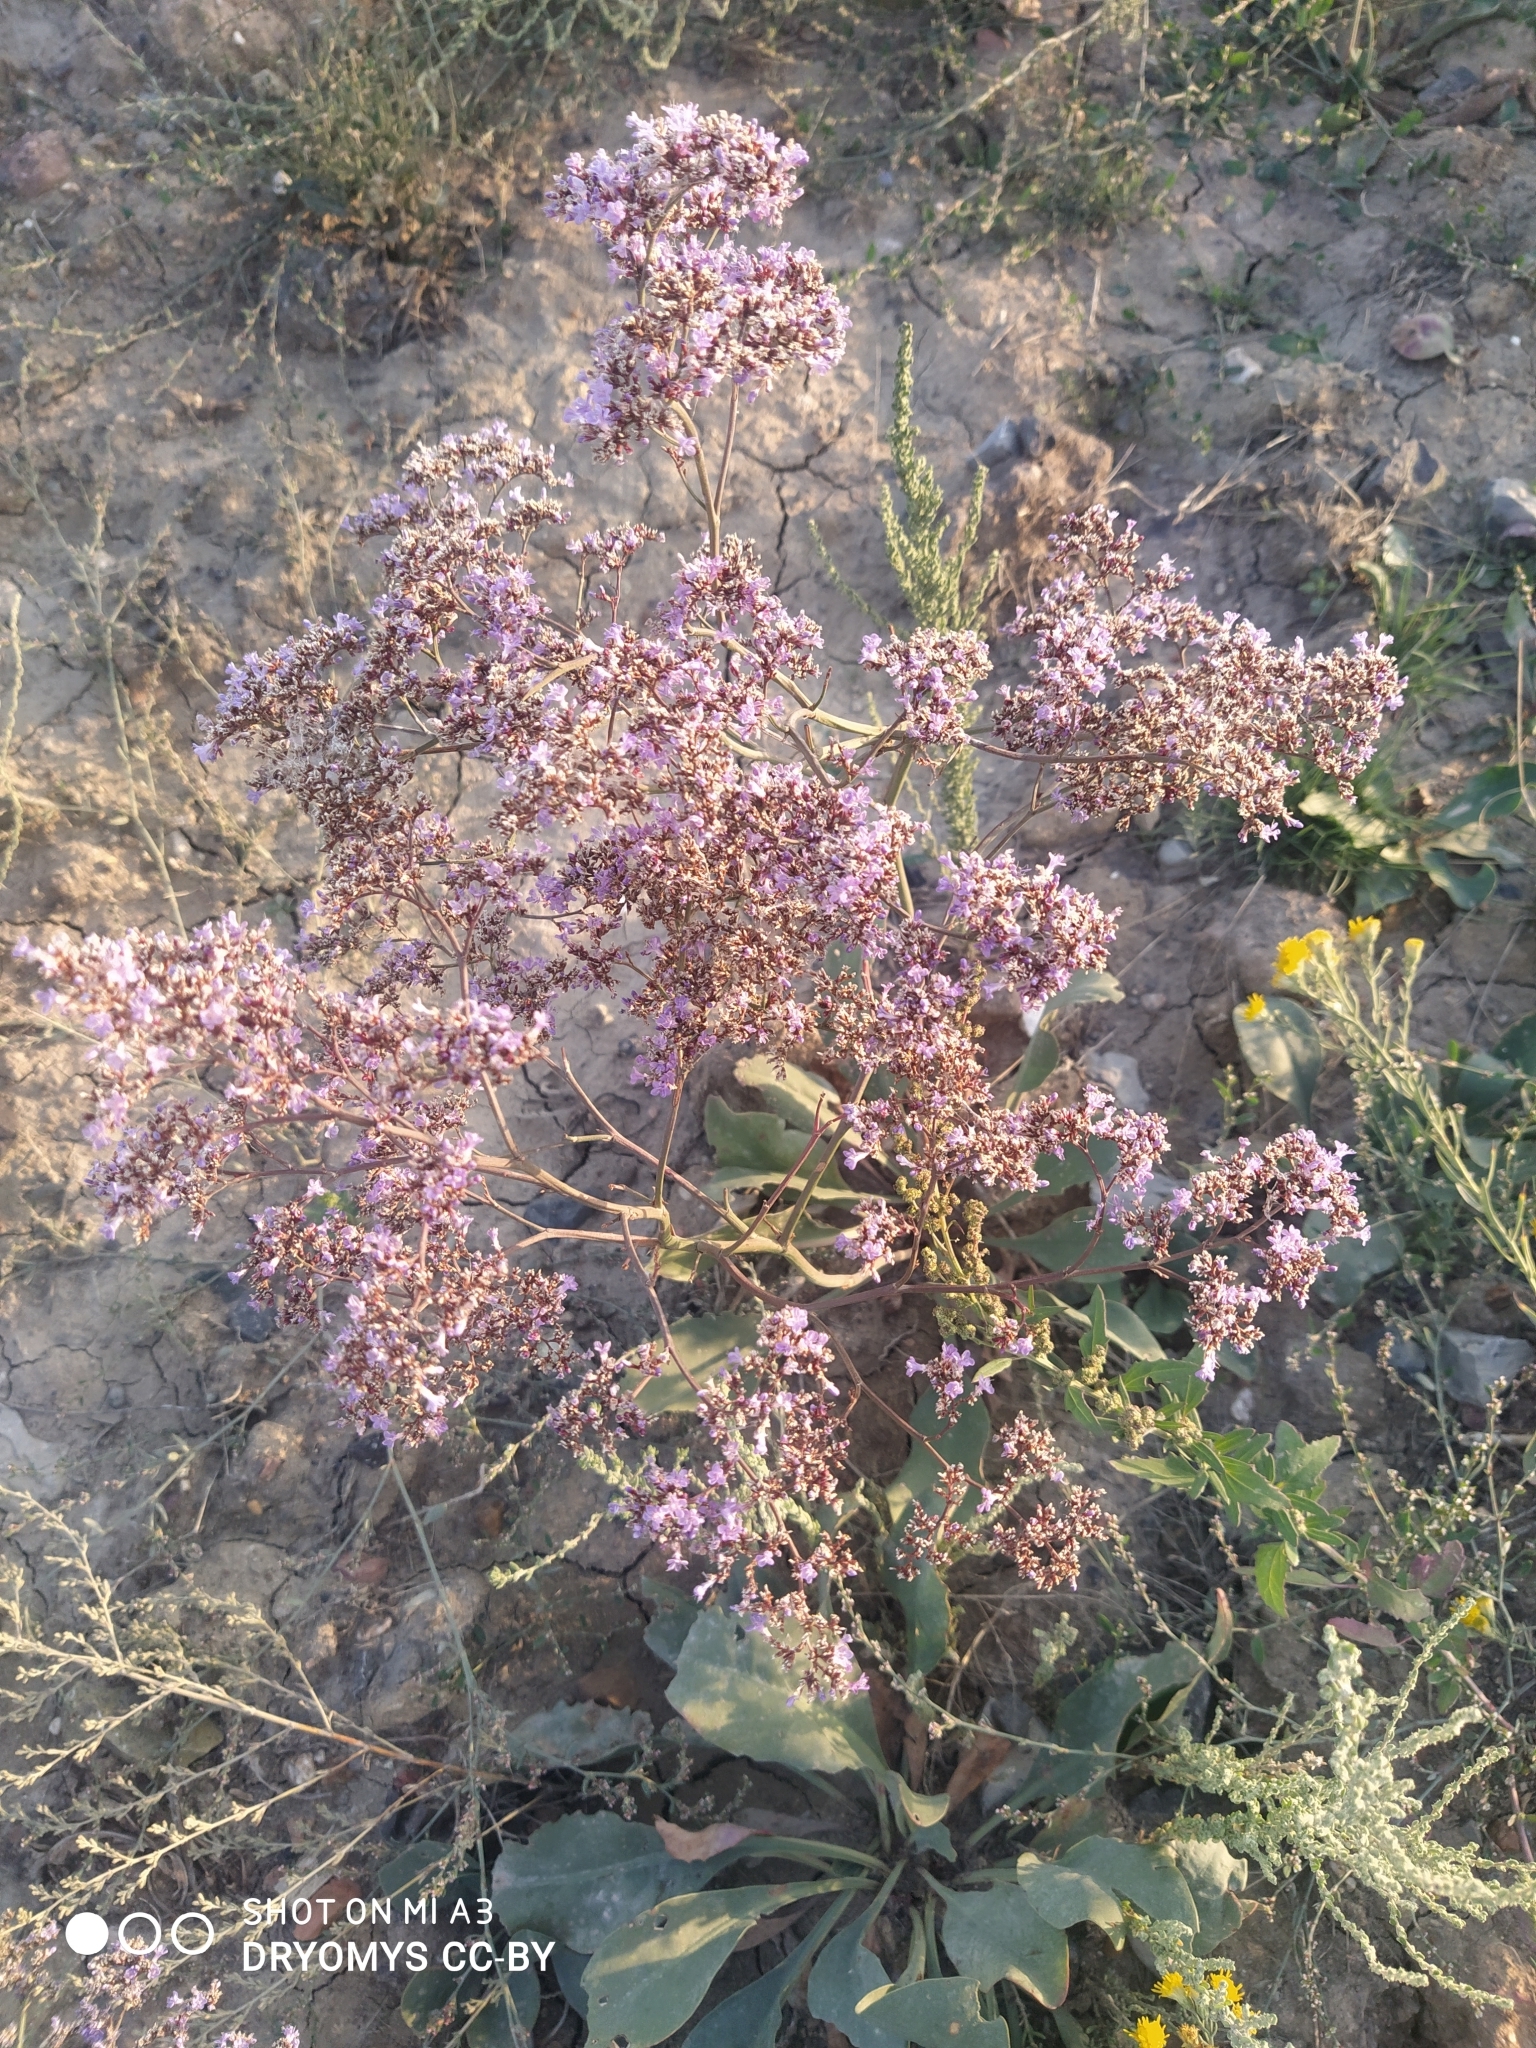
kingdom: Plantae
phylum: Tracheophyta
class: Magnoliopsida
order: Caryophyllales
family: Plumbaginaceae
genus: Limonium
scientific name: Limonium gmelini
